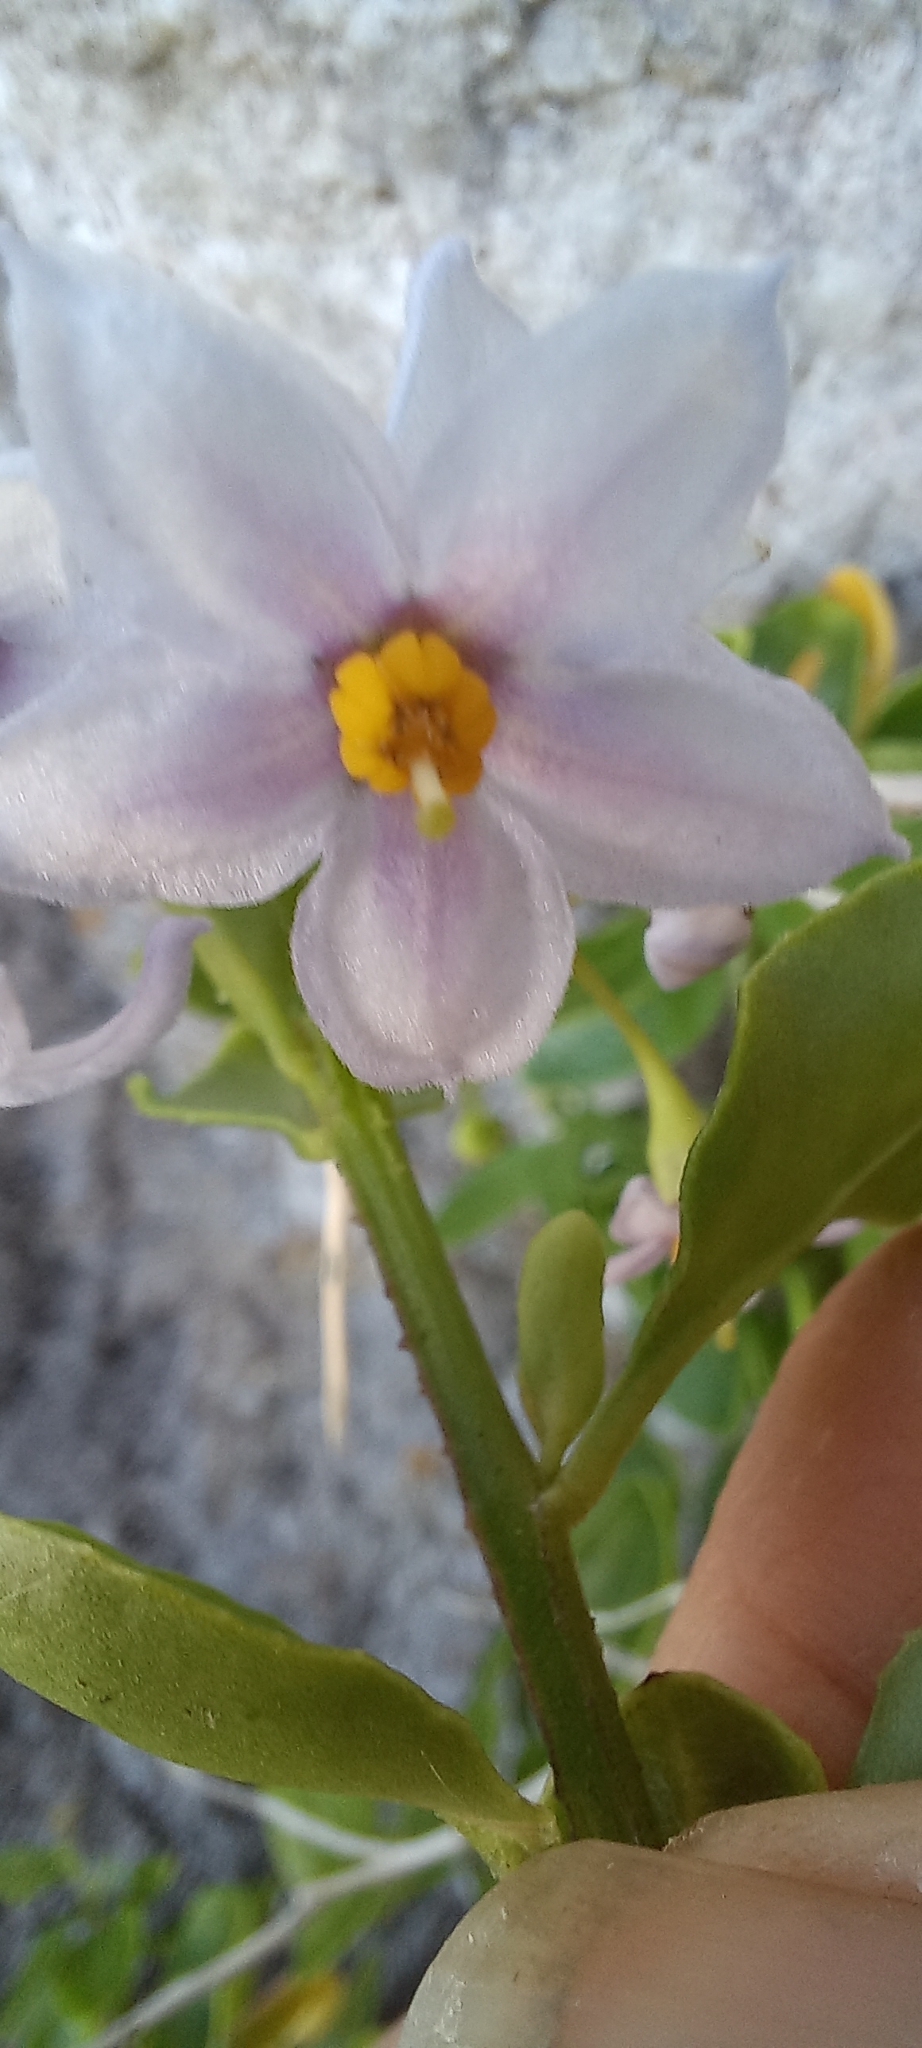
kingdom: Plantae
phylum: Tracheophyta
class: Magnoliopsida
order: Solanales
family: Solanaceae
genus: Solanum
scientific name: Solanum africanum
